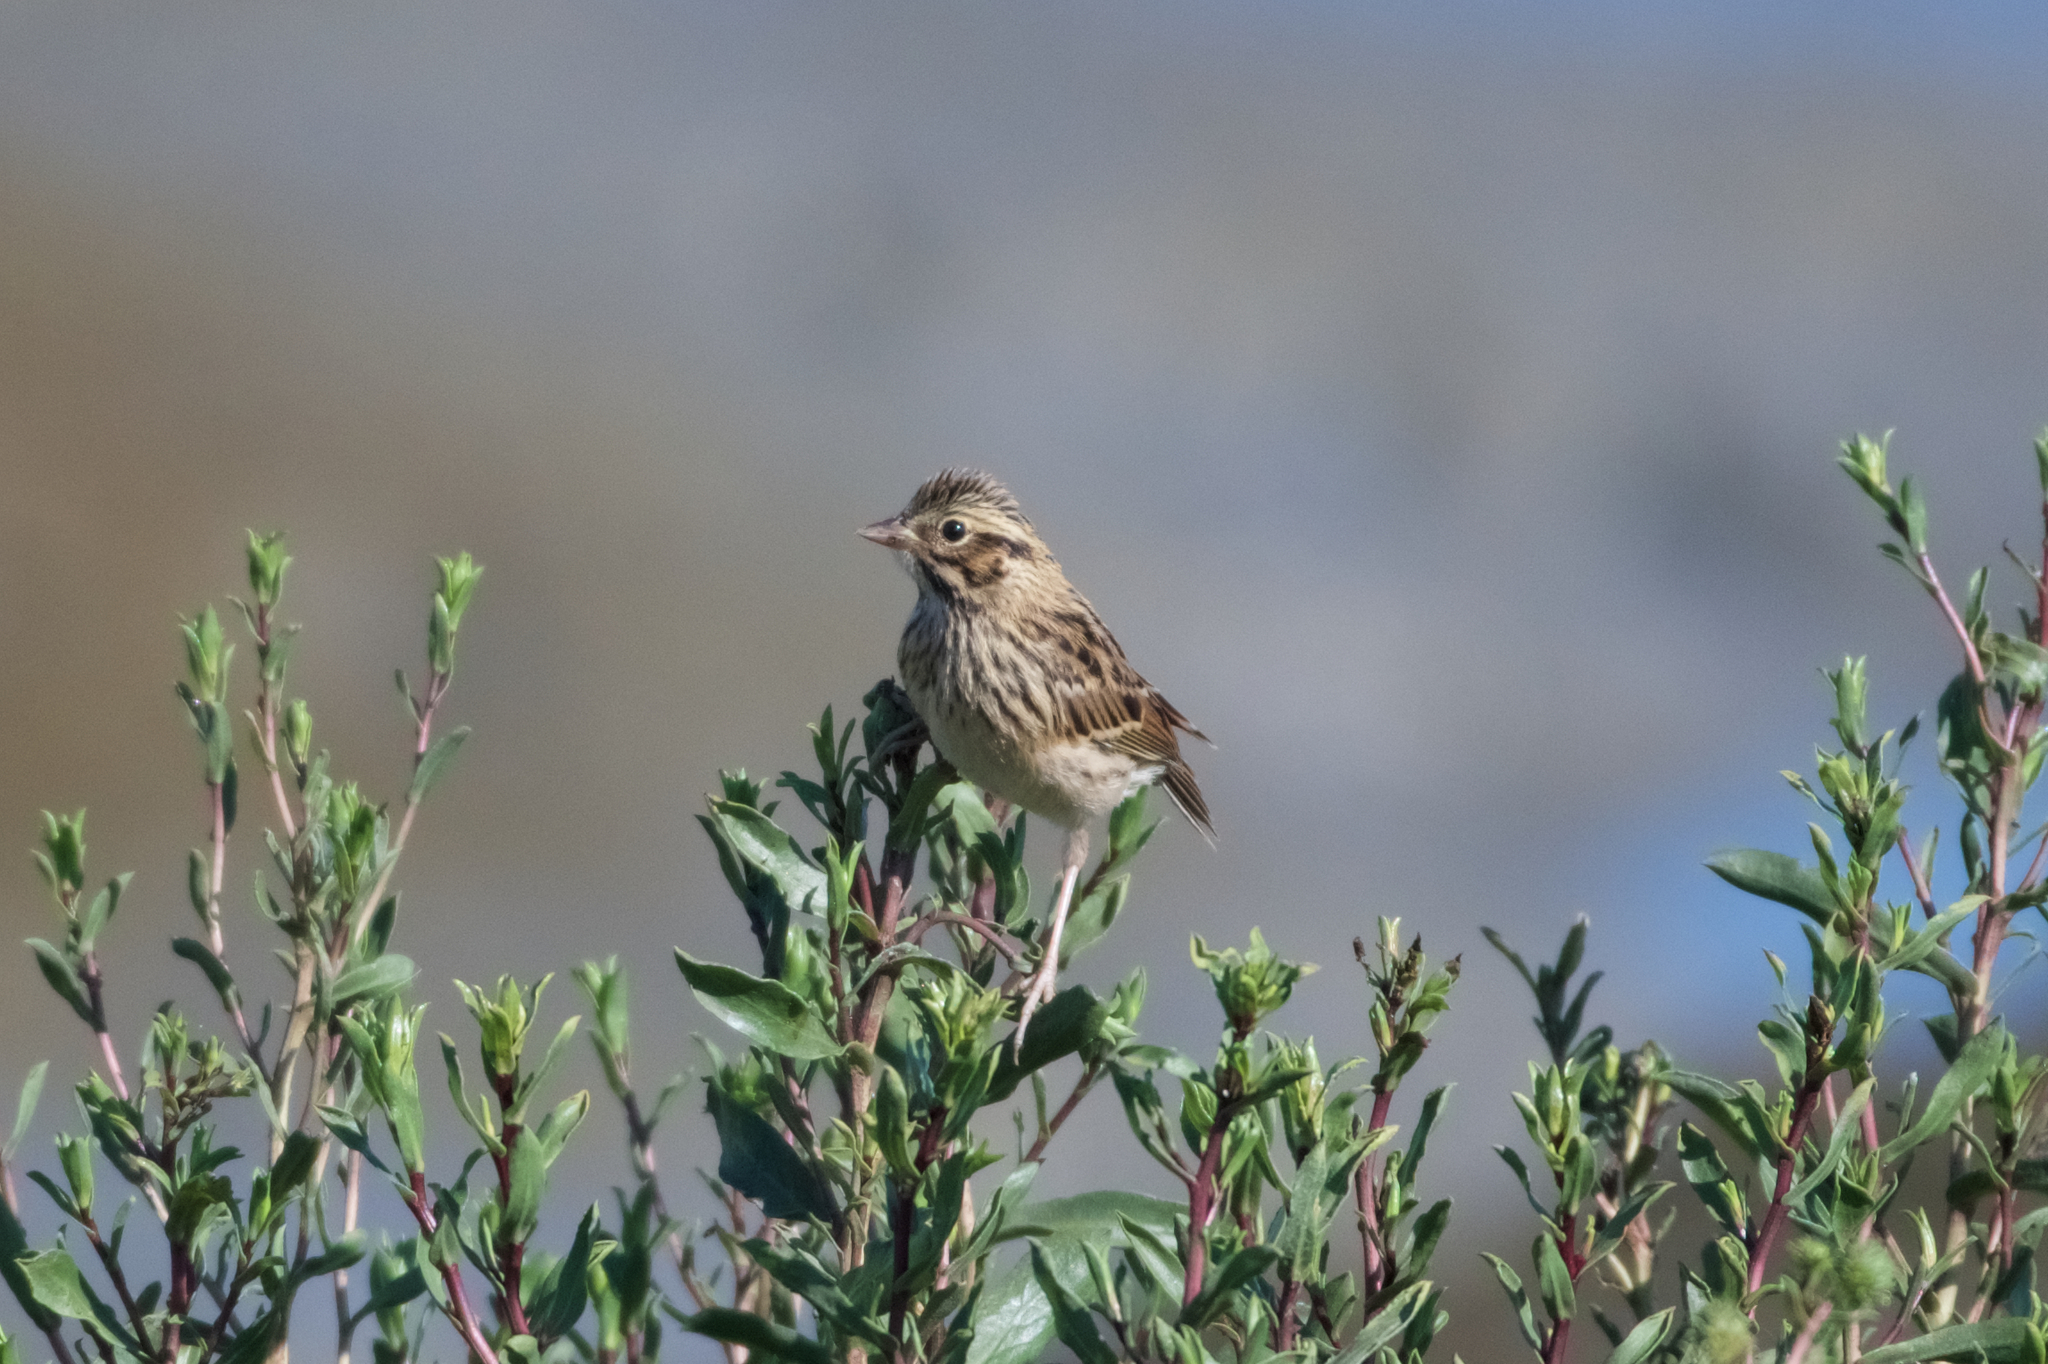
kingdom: Animalia
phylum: Chordata
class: Aves
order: Passeriformes
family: Passerellidae
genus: Passerculus
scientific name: Passerculus sandwichensis
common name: Savannah sparrow
